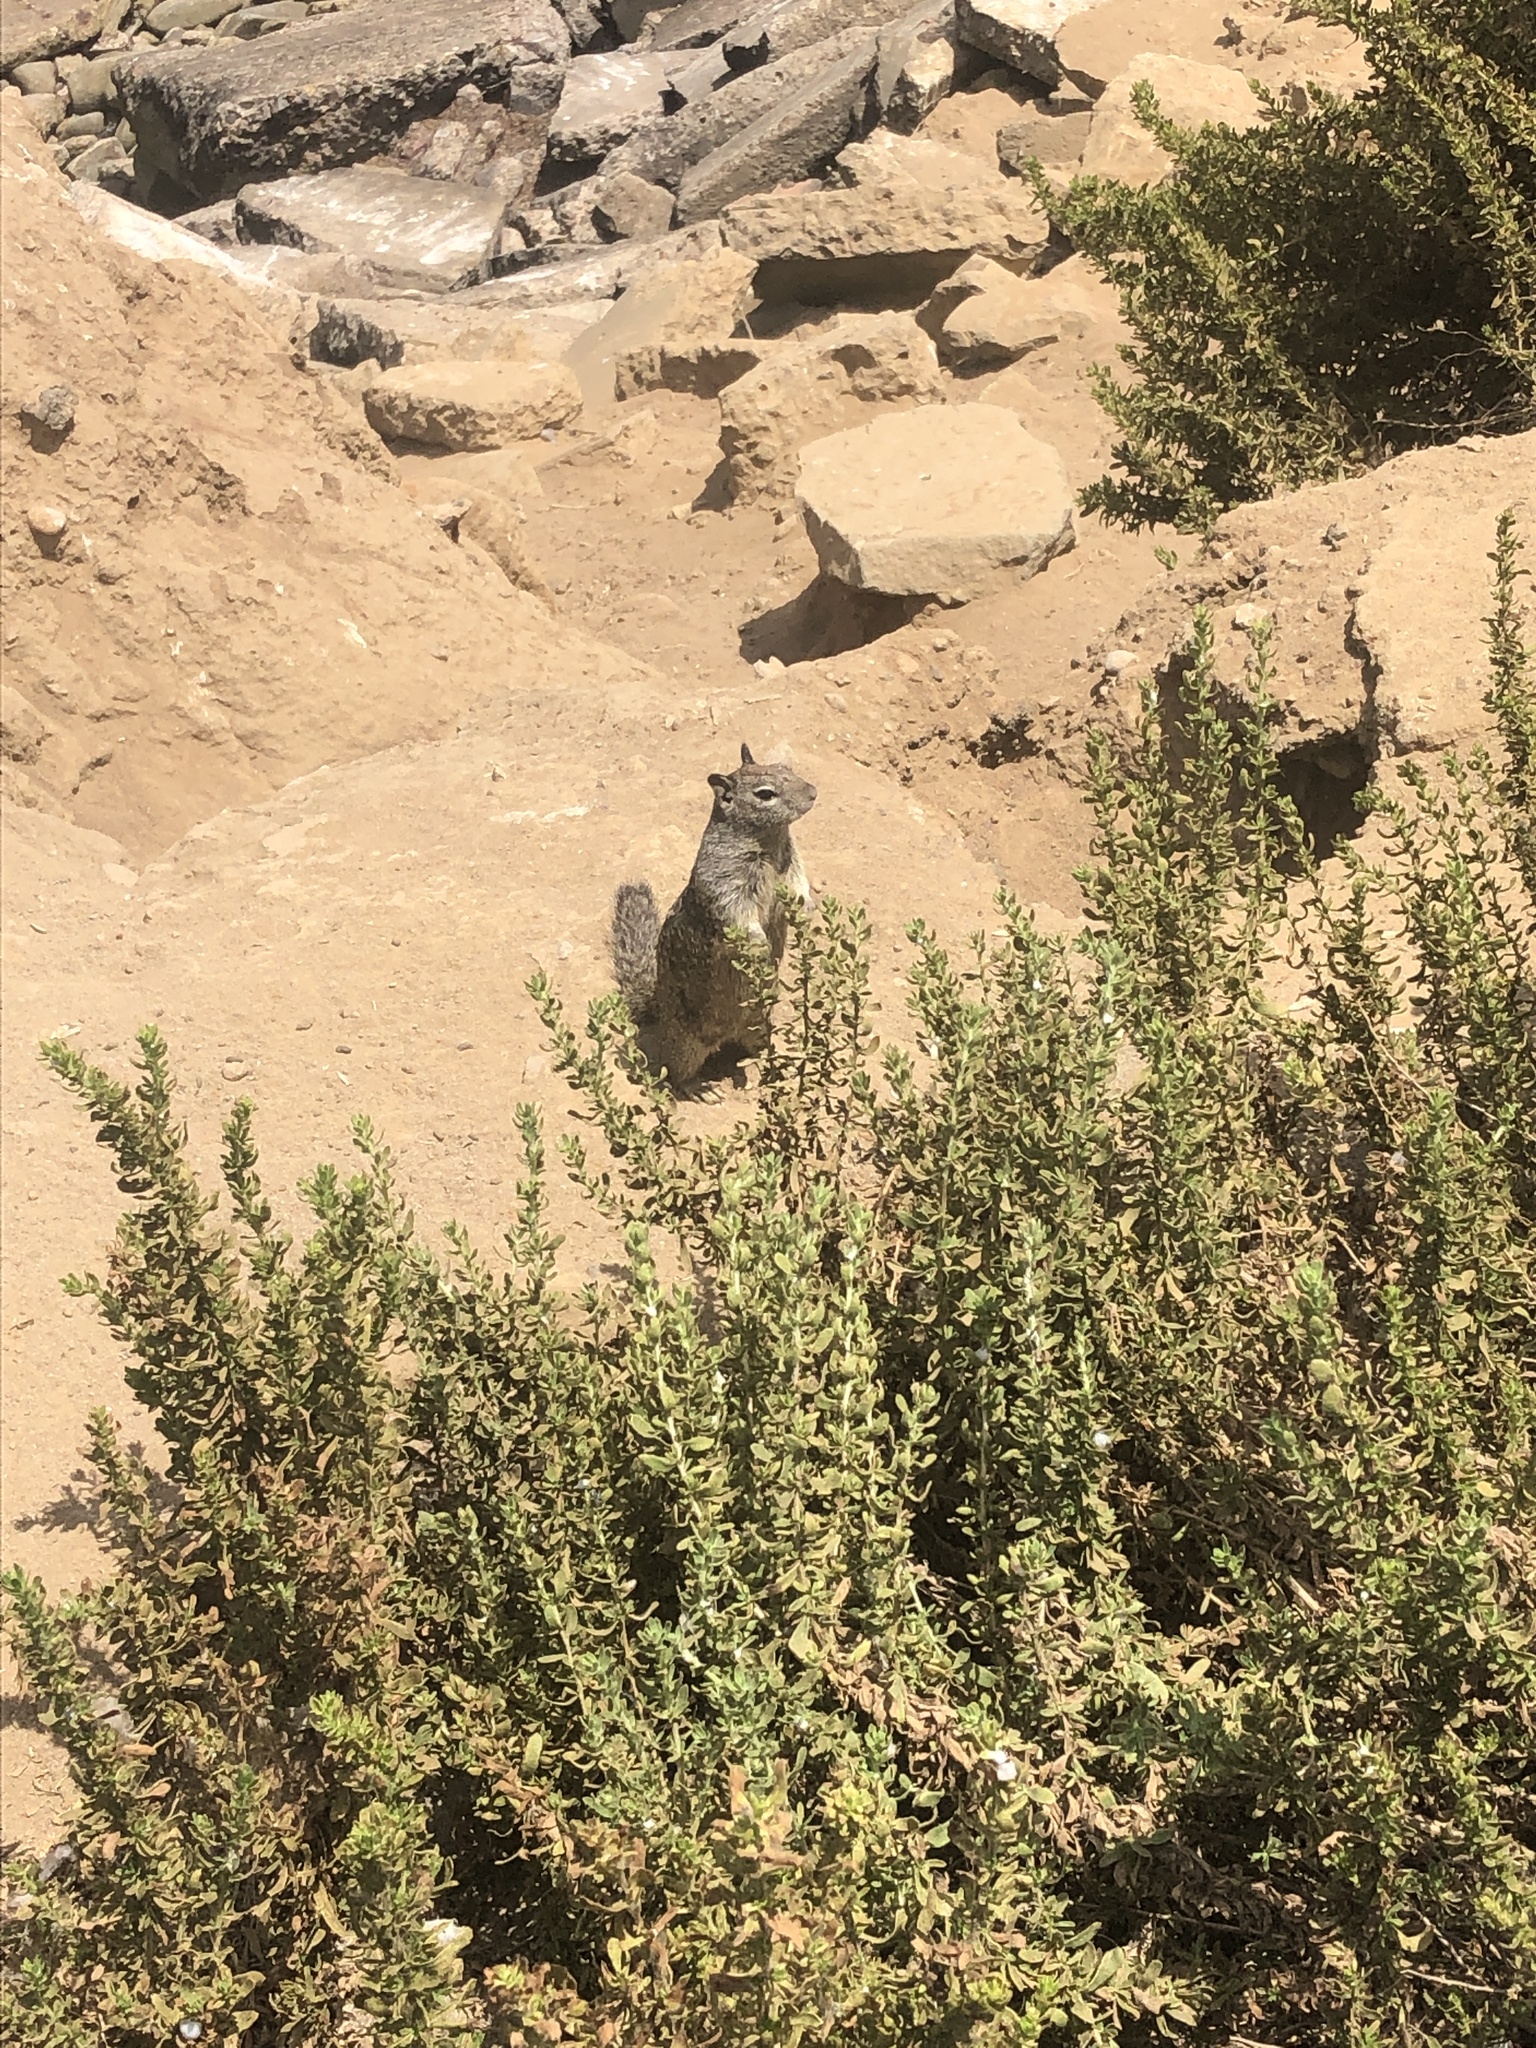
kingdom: Animalia
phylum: Chordata
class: Mammalia
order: Rodentia
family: Sciuridae
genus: Otospermophilus
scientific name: Otospermophilus beecheyi
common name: California ground squirrel
